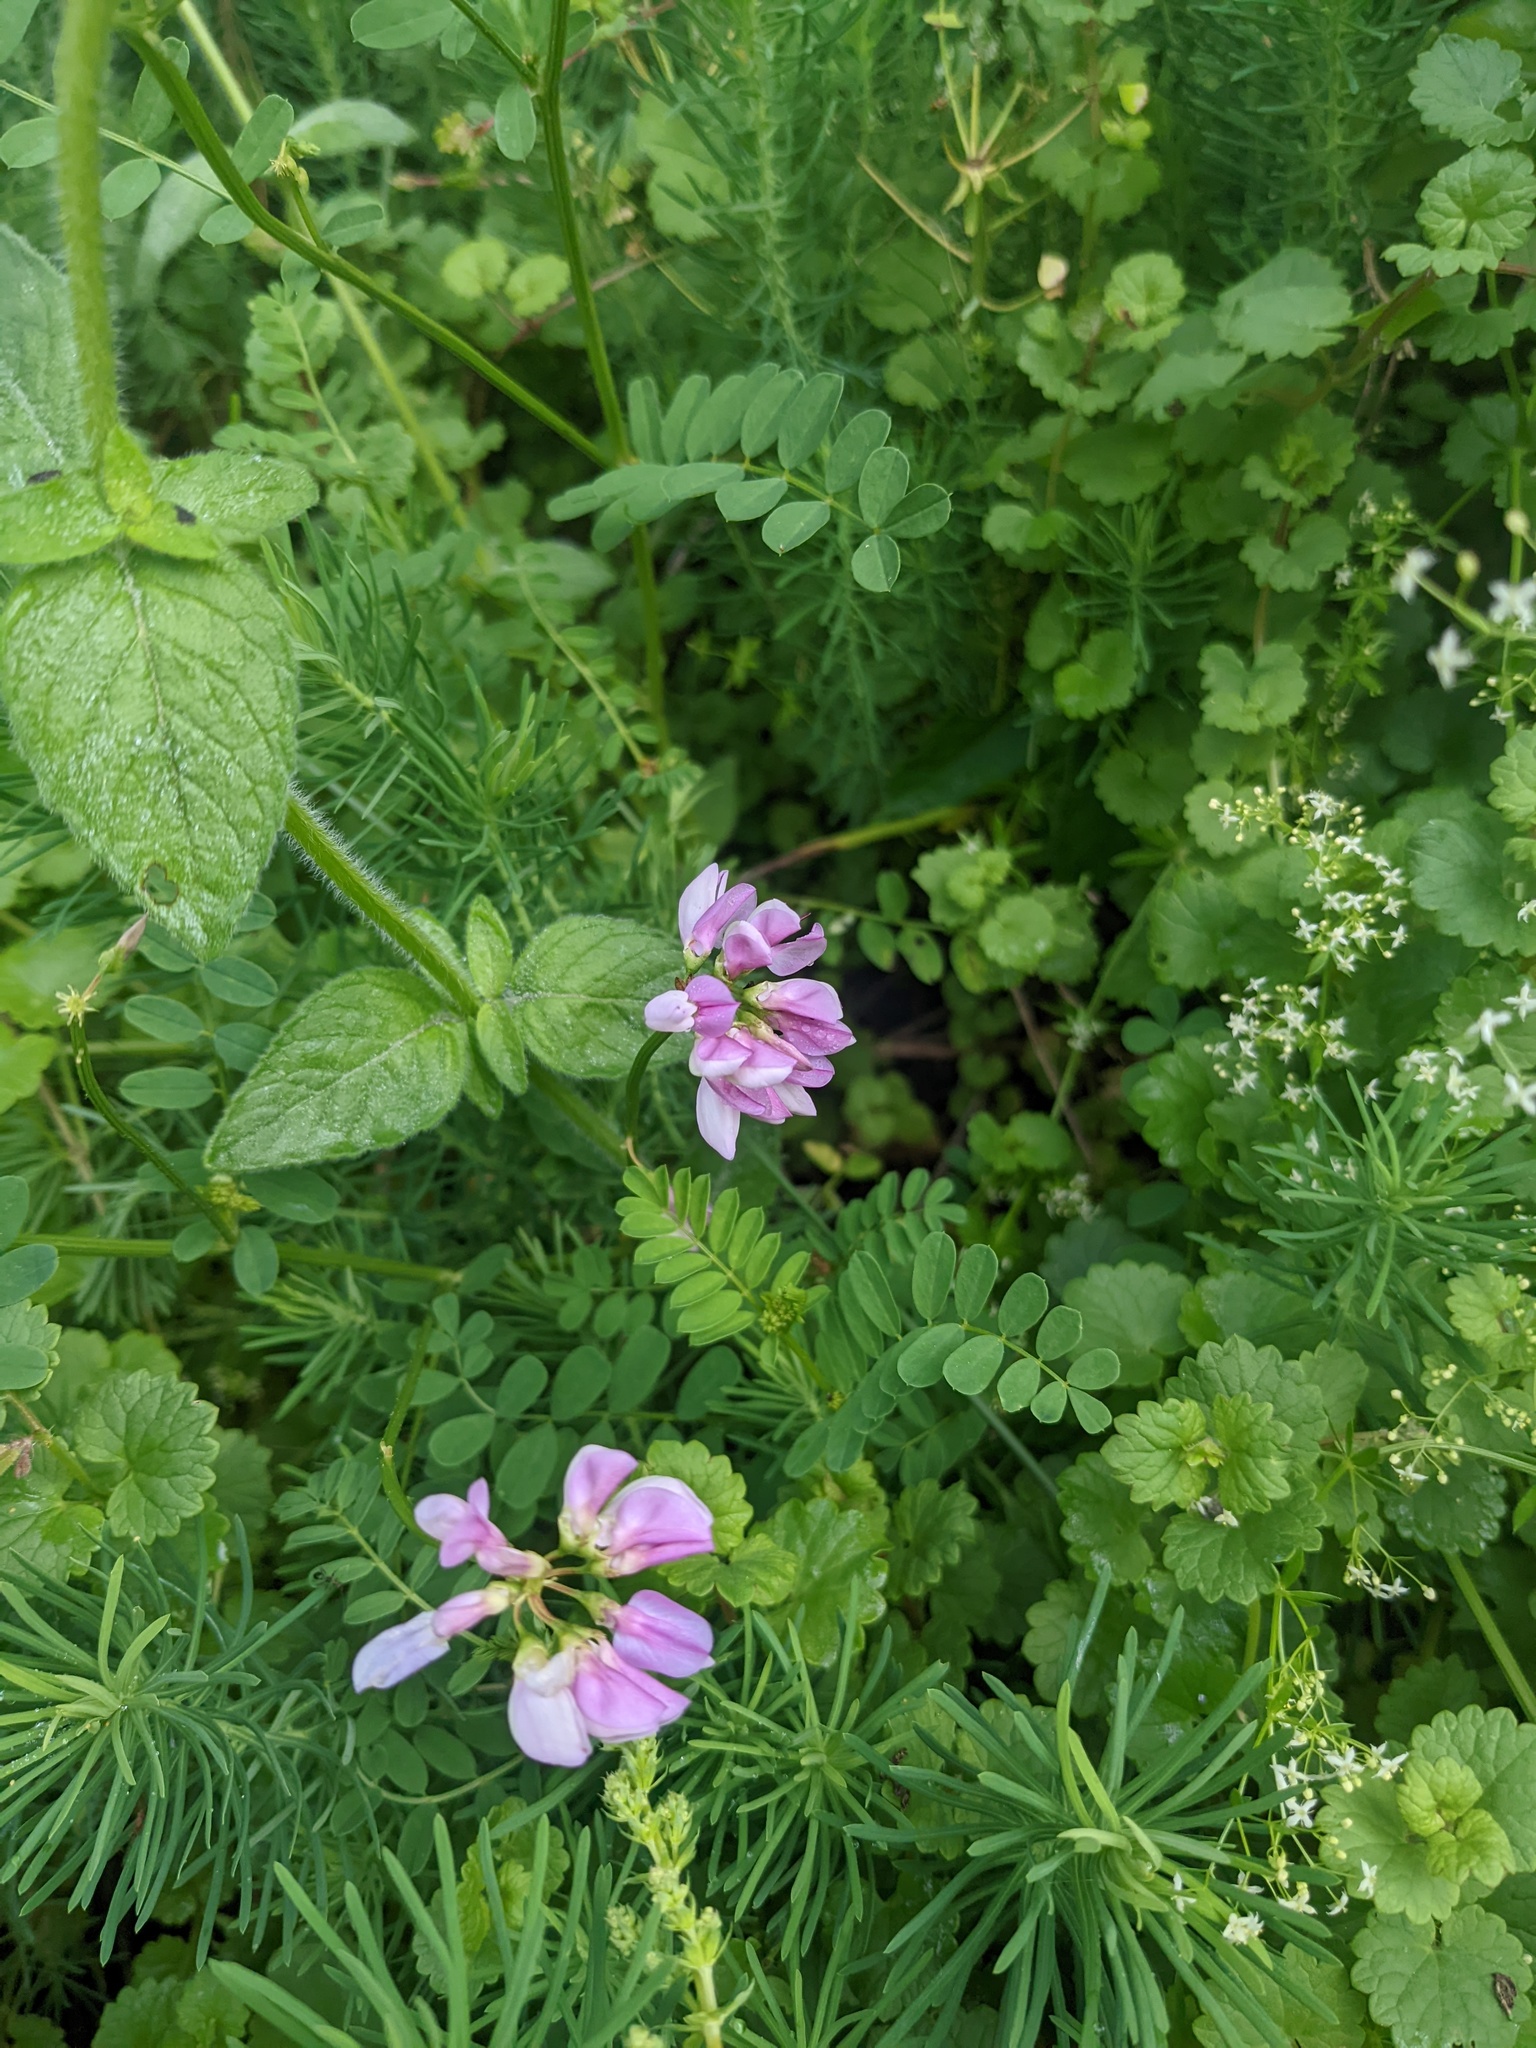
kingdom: Plantae
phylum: Tracheophyta
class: Magnoliopsida
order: Fabales
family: Fabaceae
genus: Coronilla
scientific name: Coronilla varia
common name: Crownvetch
